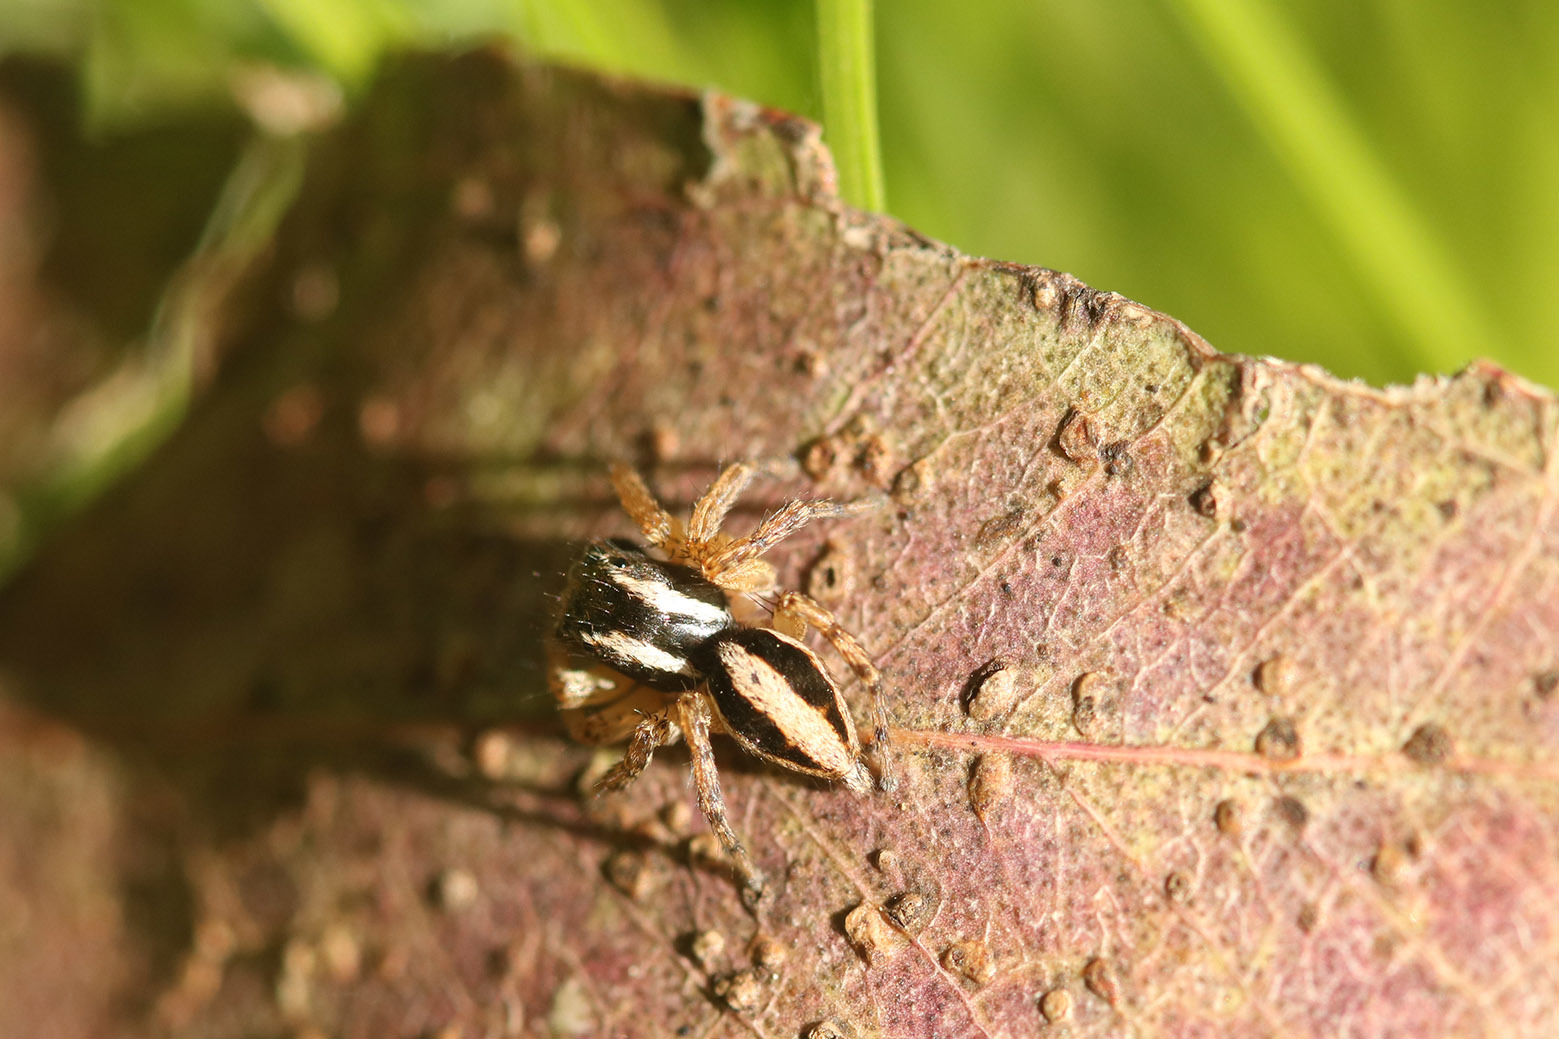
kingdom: Animalia
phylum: Arthropoda
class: Arachnida
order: Araneae
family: Salticidae
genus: Aphirape
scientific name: Aphirape
